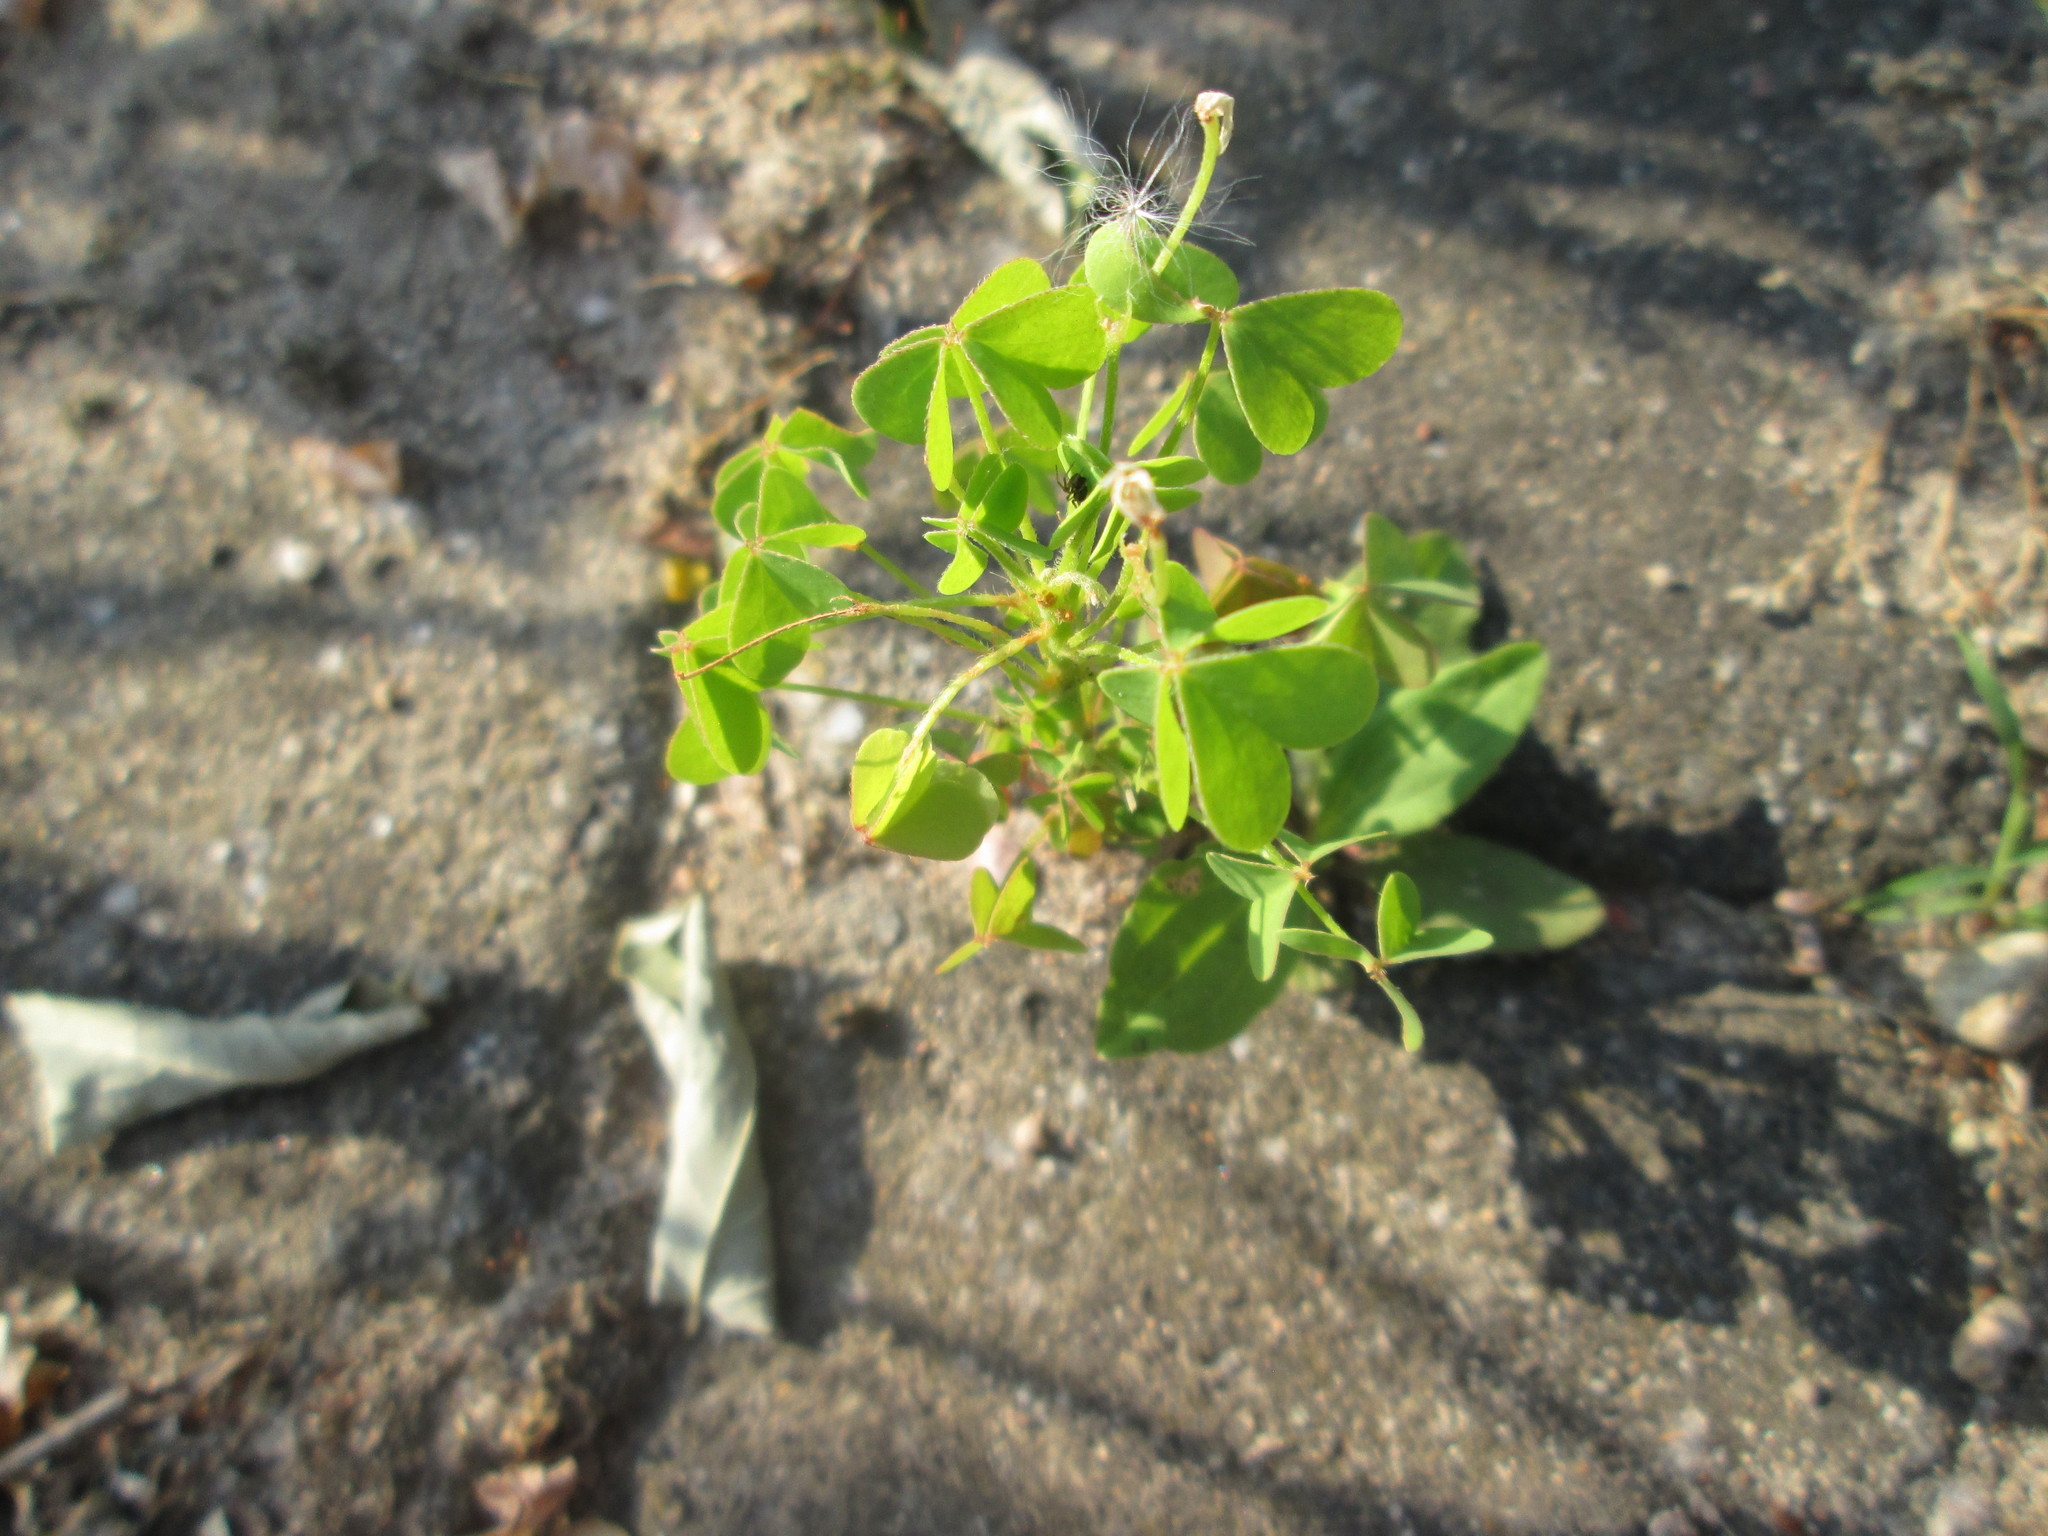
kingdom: Plantae
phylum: Tracheophyta
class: Magnoliopsida
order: Oxalidales
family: Oxalidaceae
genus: Oxalis
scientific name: Oxalis stricta
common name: Upright yellow-sorrel
